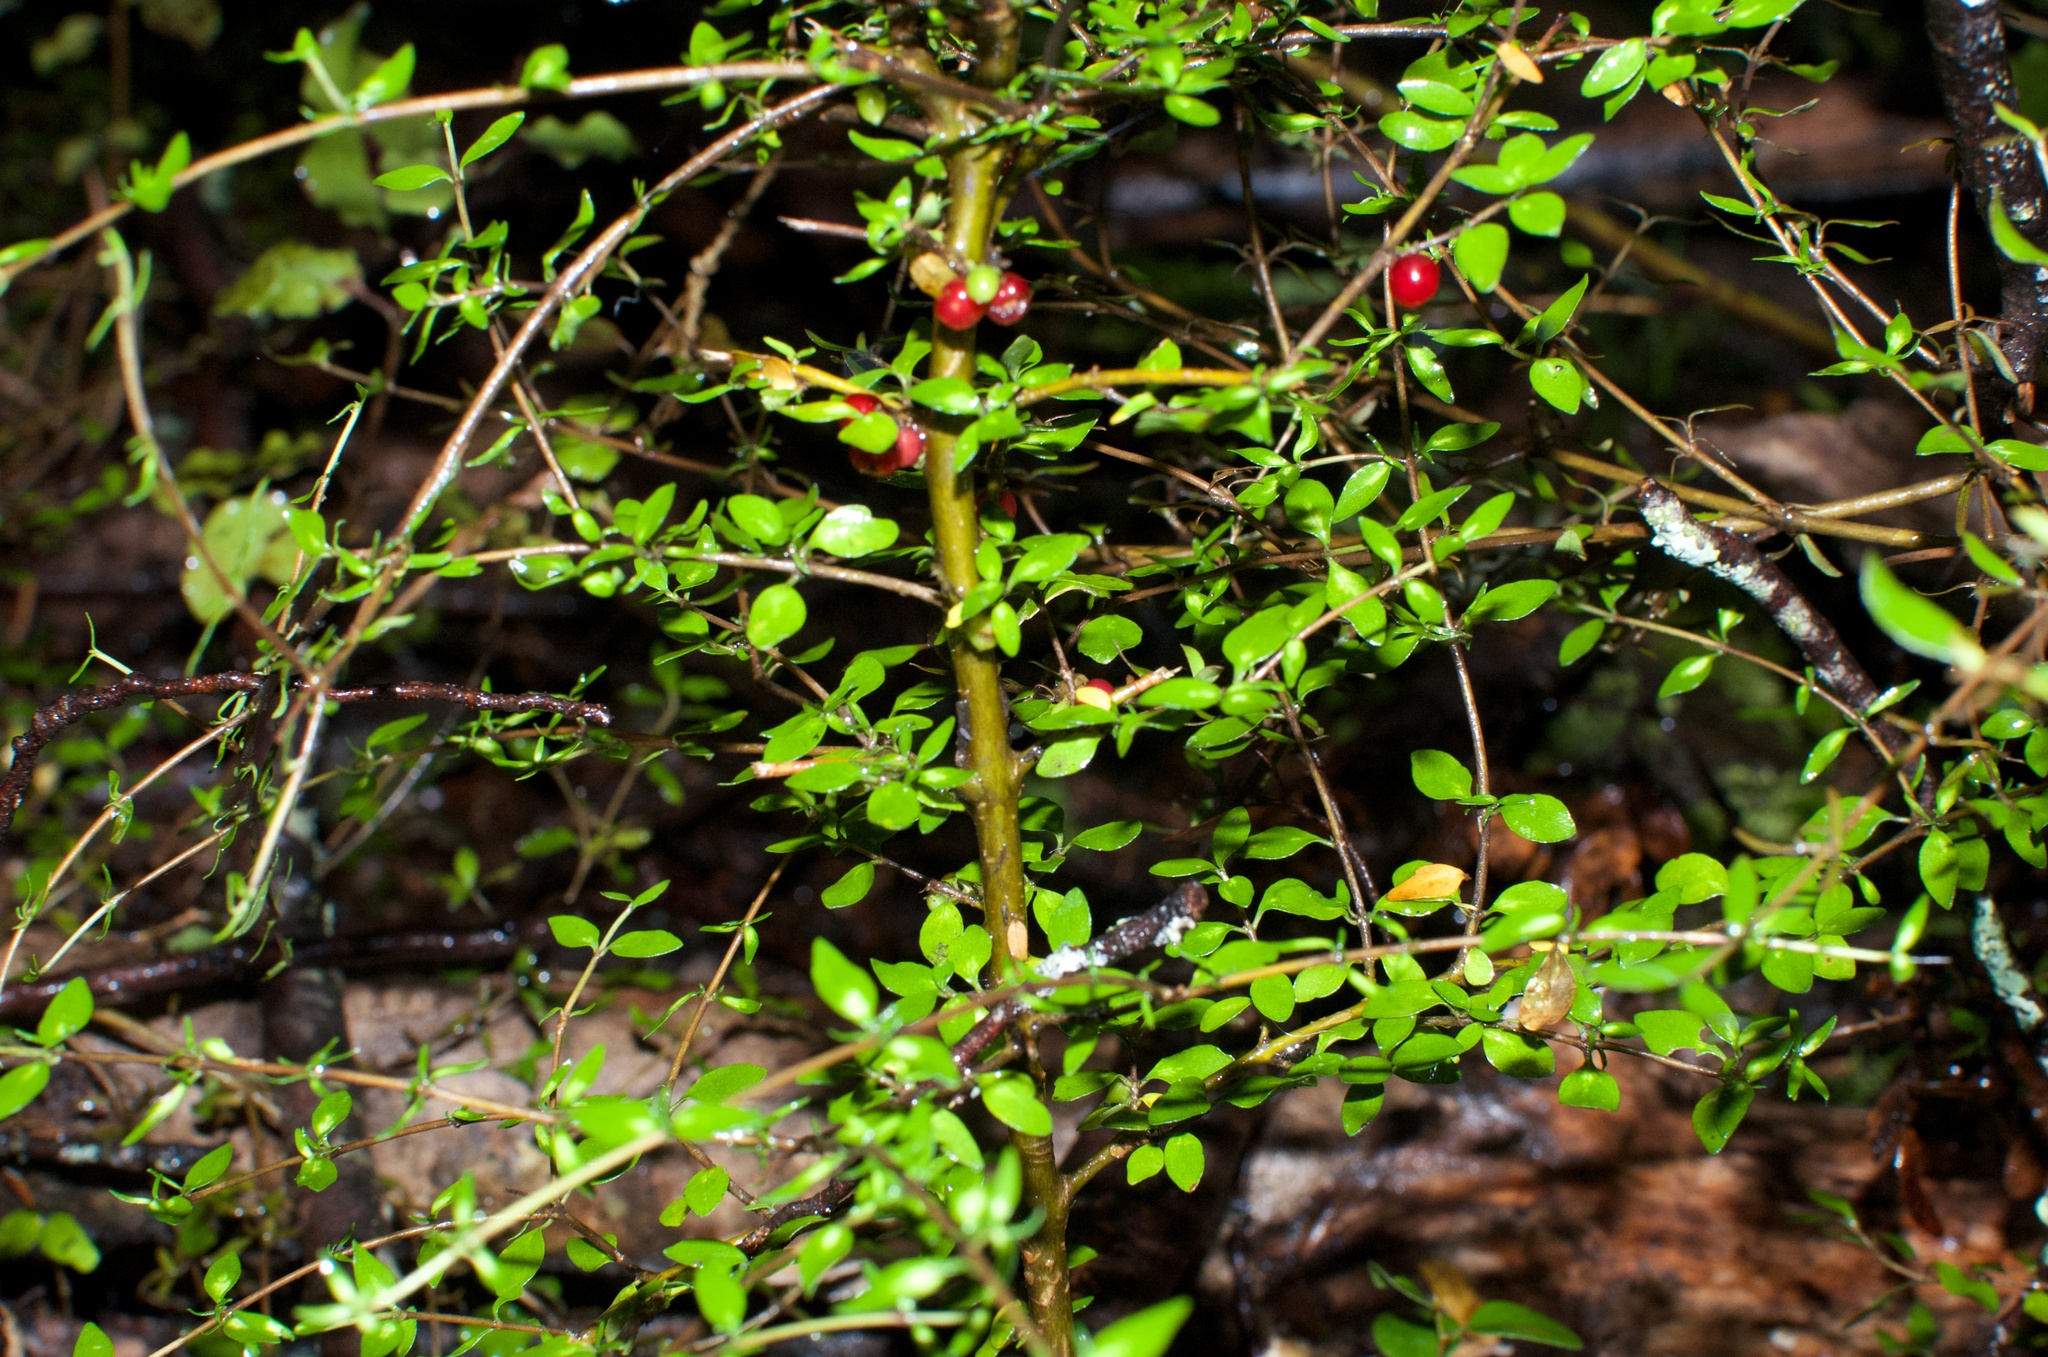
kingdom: Plantae
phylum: Tracheophyta
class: Magnoliopsida
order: Gentianales
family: Rubiaceae
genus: Coprosma
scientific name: Coprosma rhamnoides
